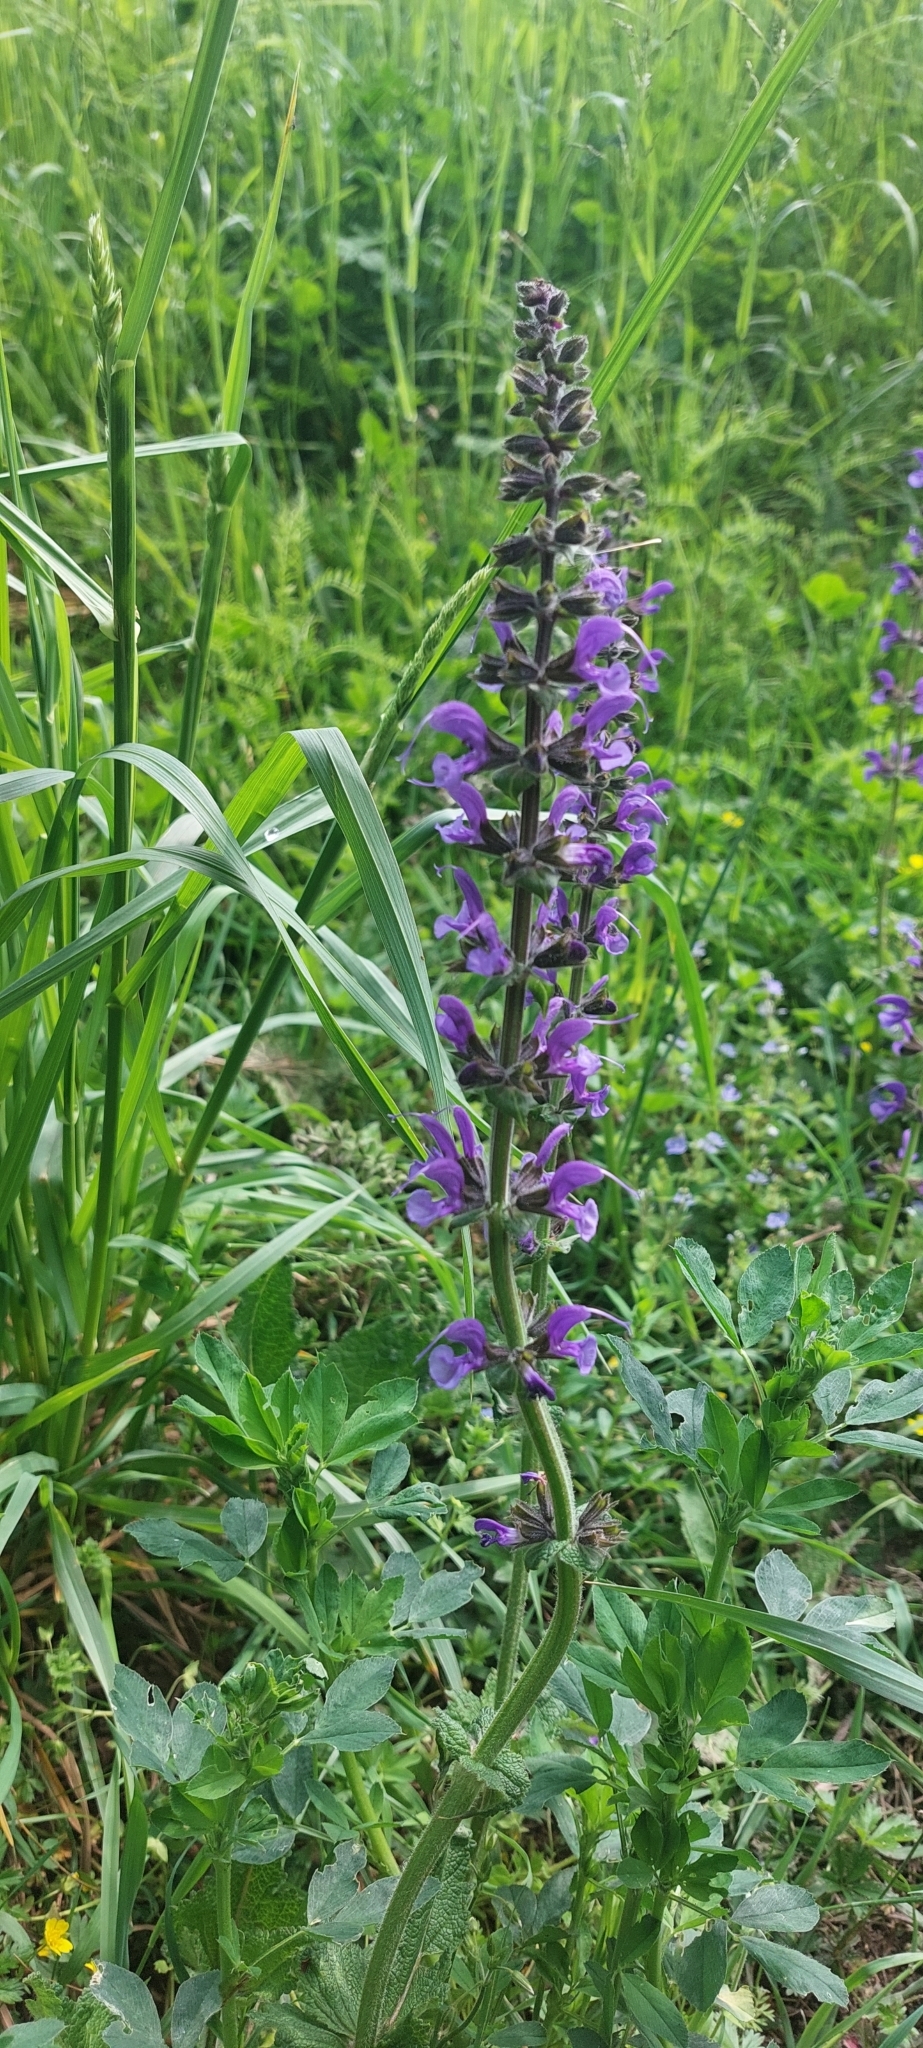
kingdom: Plantae
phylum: Tracheophyta
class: Magnoliopsida
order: Lamiales
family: Lamiaceae
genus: Salvia
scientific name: Salvia pratensis
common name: Meadow sage
